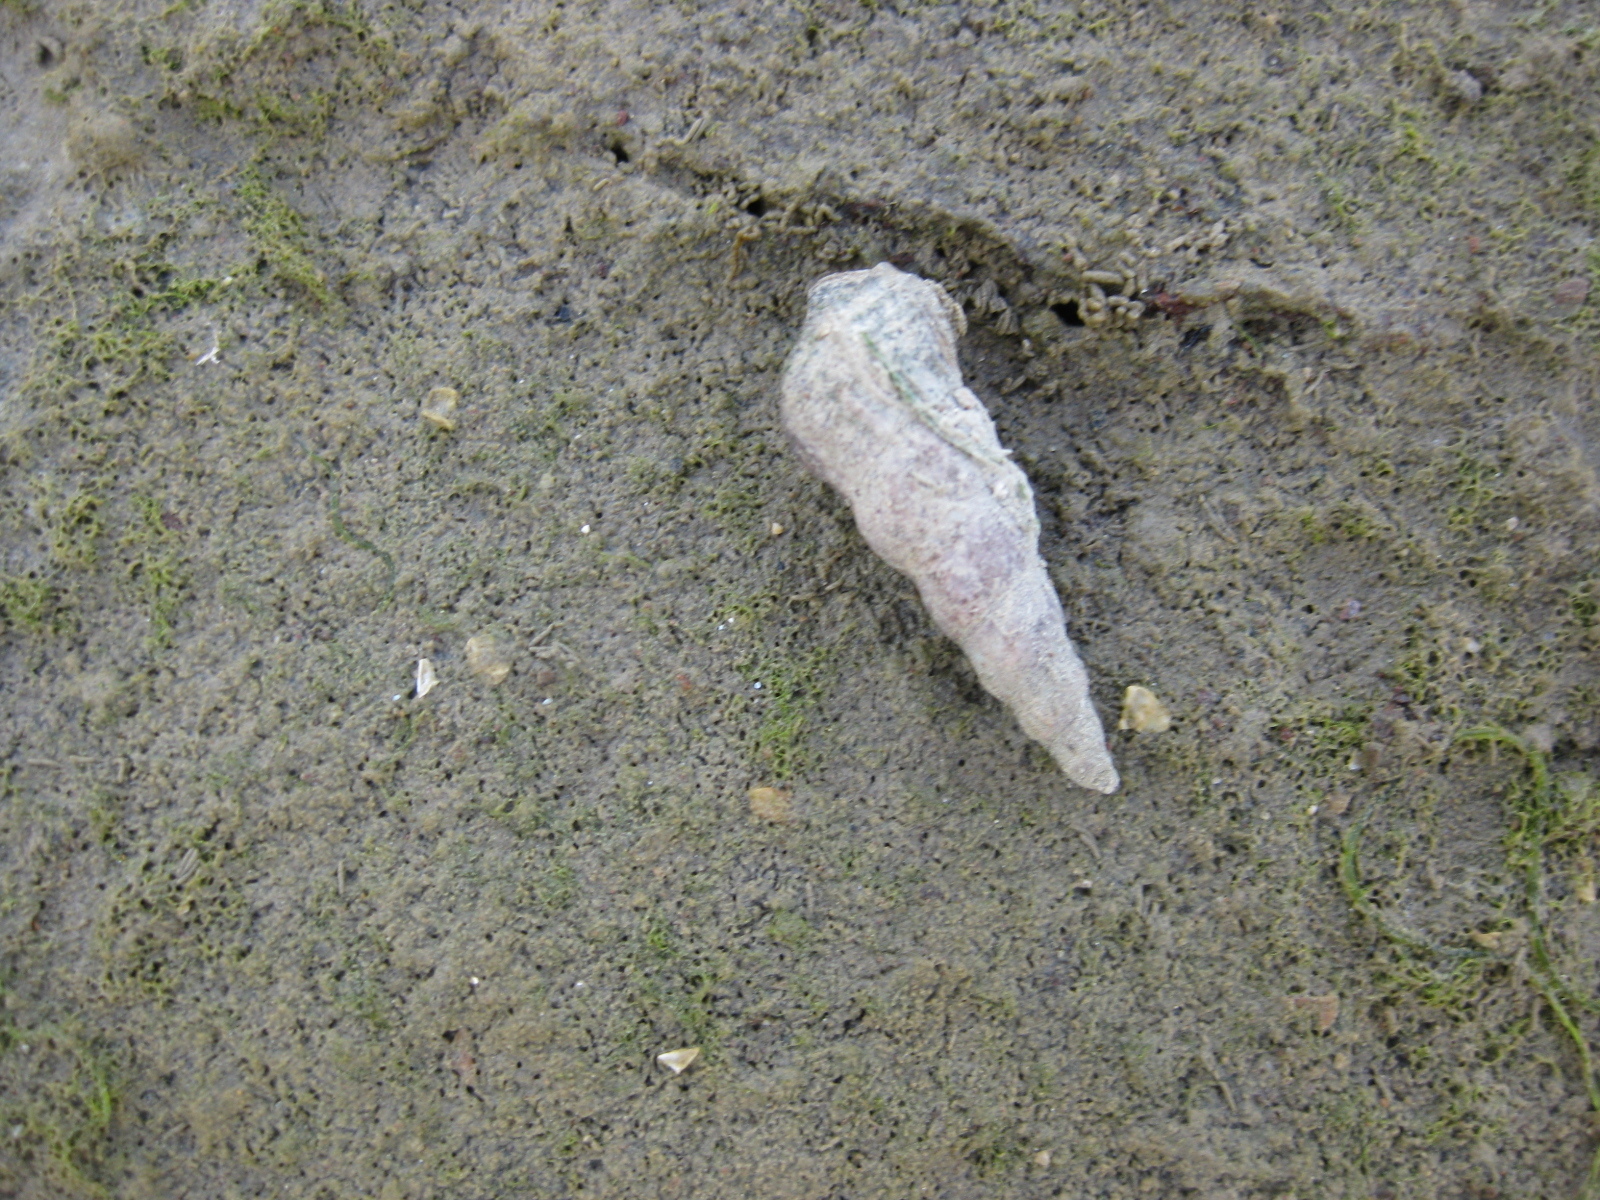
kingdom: Animalia
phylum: Mollusca
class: Gastropoda
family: Batillariidae
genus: Zeacumantus
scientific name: Zeacumantus lutulentus
